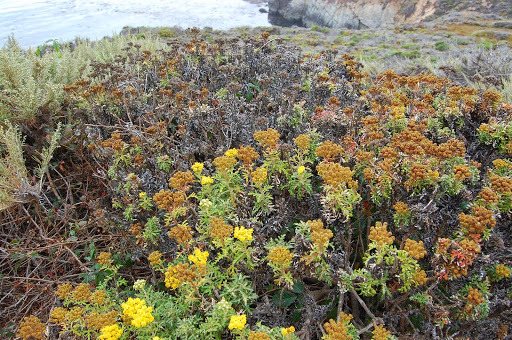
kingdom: Plantae
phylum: Tracheophyta
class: Magnoliopsida
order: Asterales
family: Asteraceae
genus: Eriophyllum
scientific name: Eriophyllum staechadifolium
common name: Lizardtail
